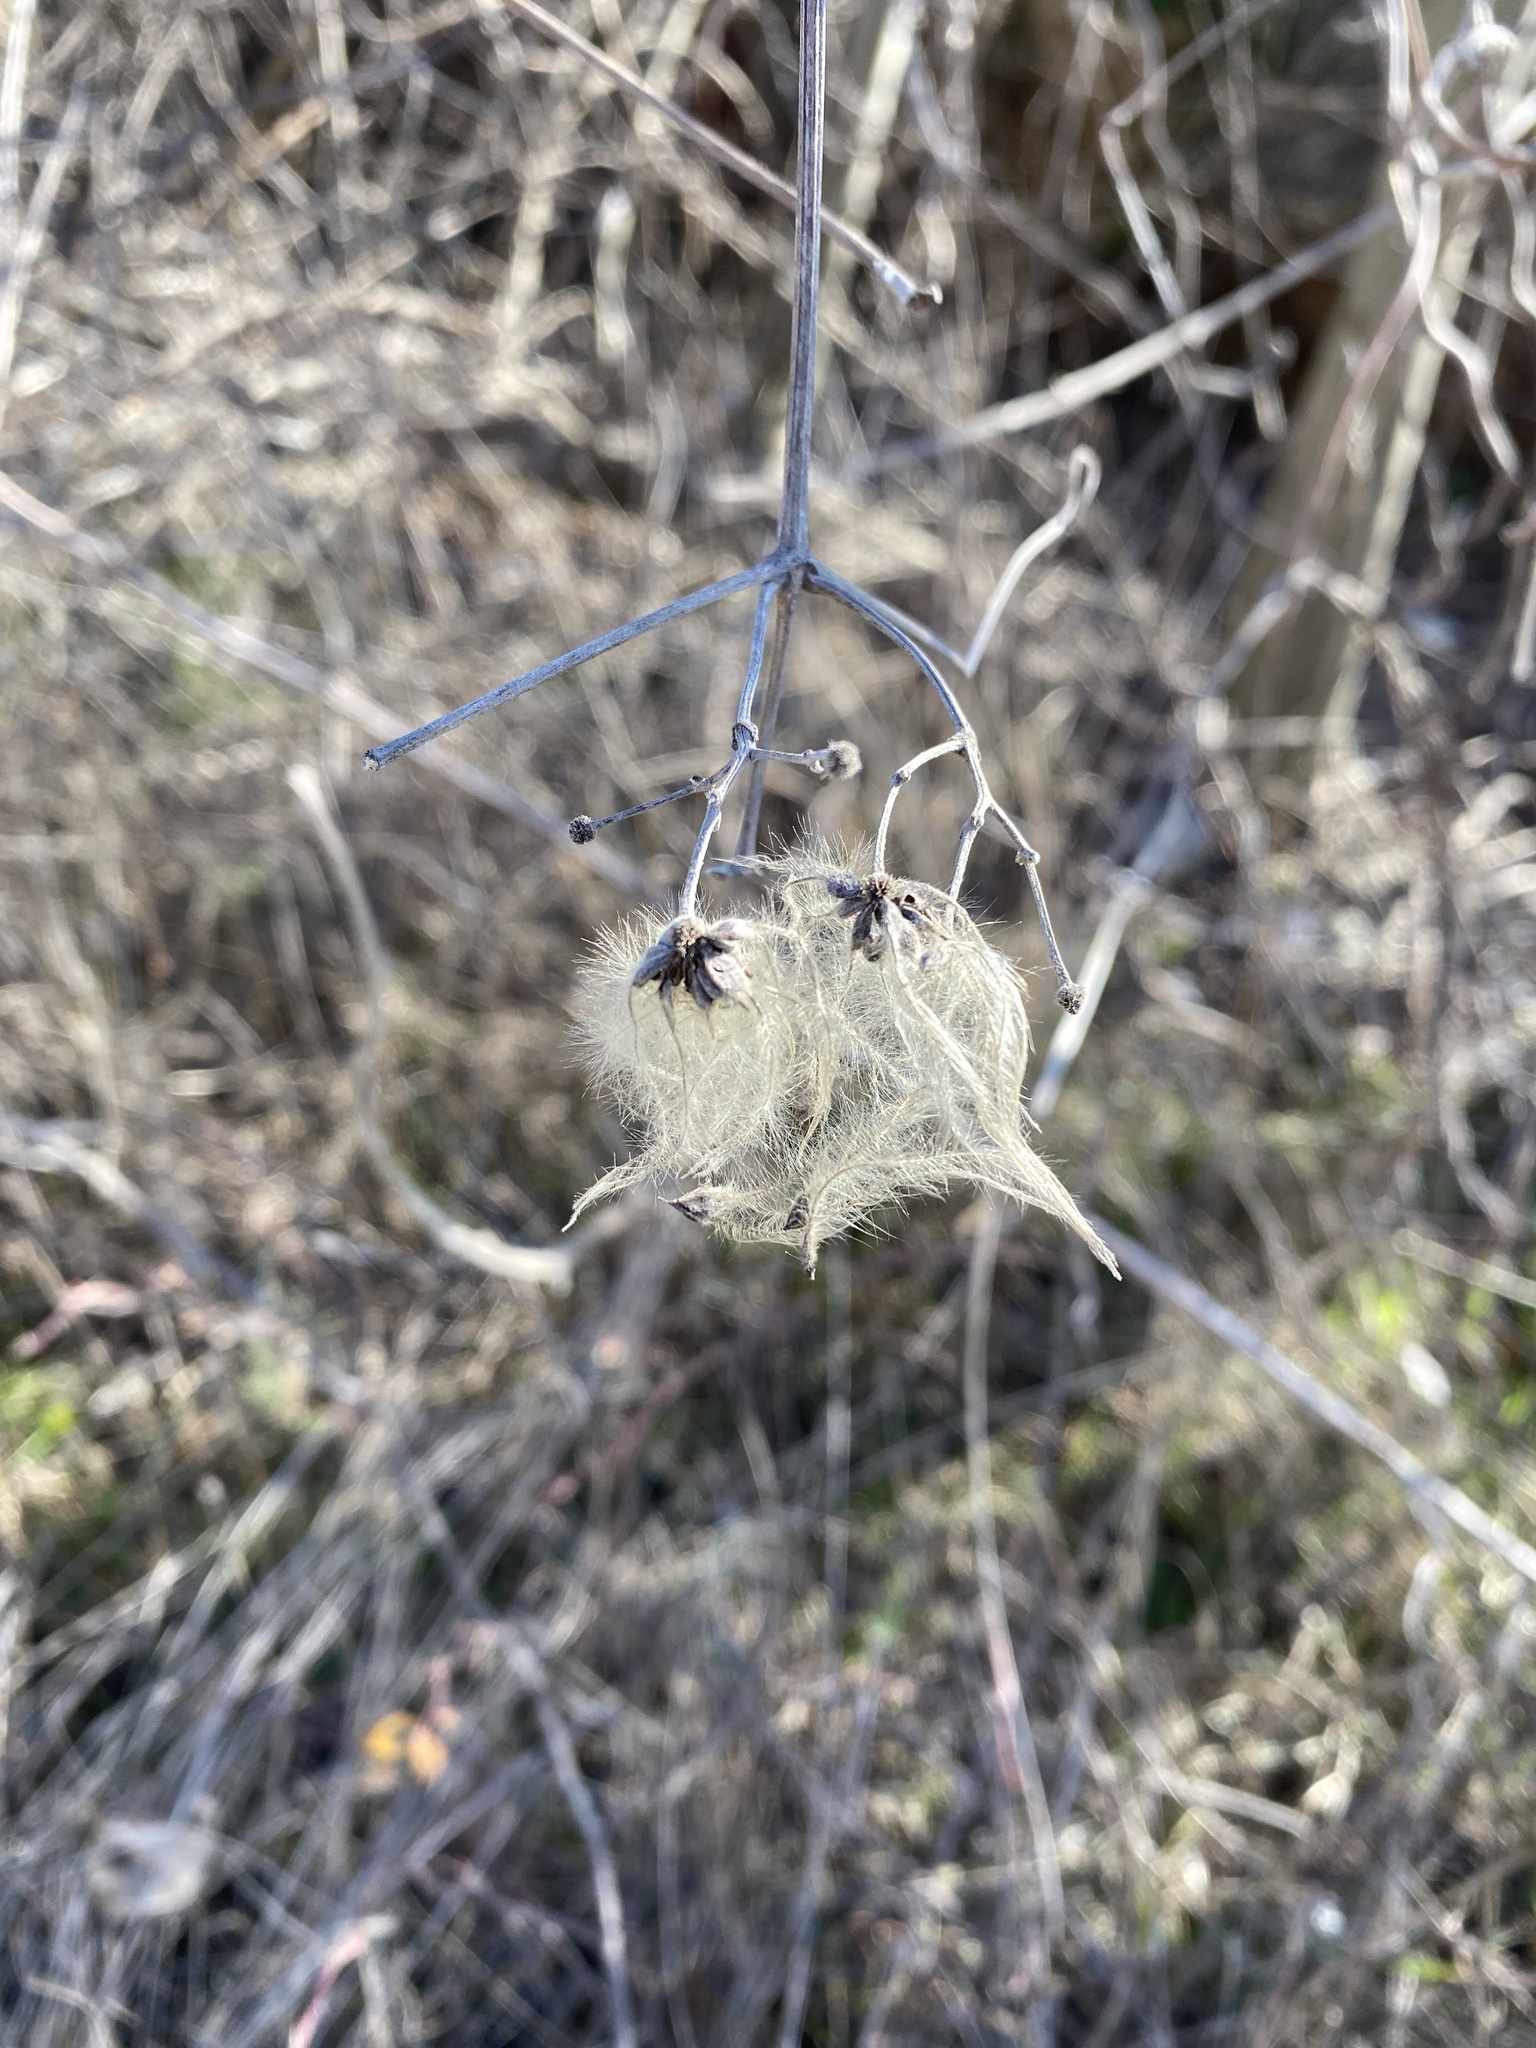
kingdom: Plantae
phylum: Tracheophyta
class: Magnoliopsida
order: Ranunculales
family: Ranunculaceae
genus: Clematis
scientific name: Clematis vitalba
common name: Evergreen clematis
